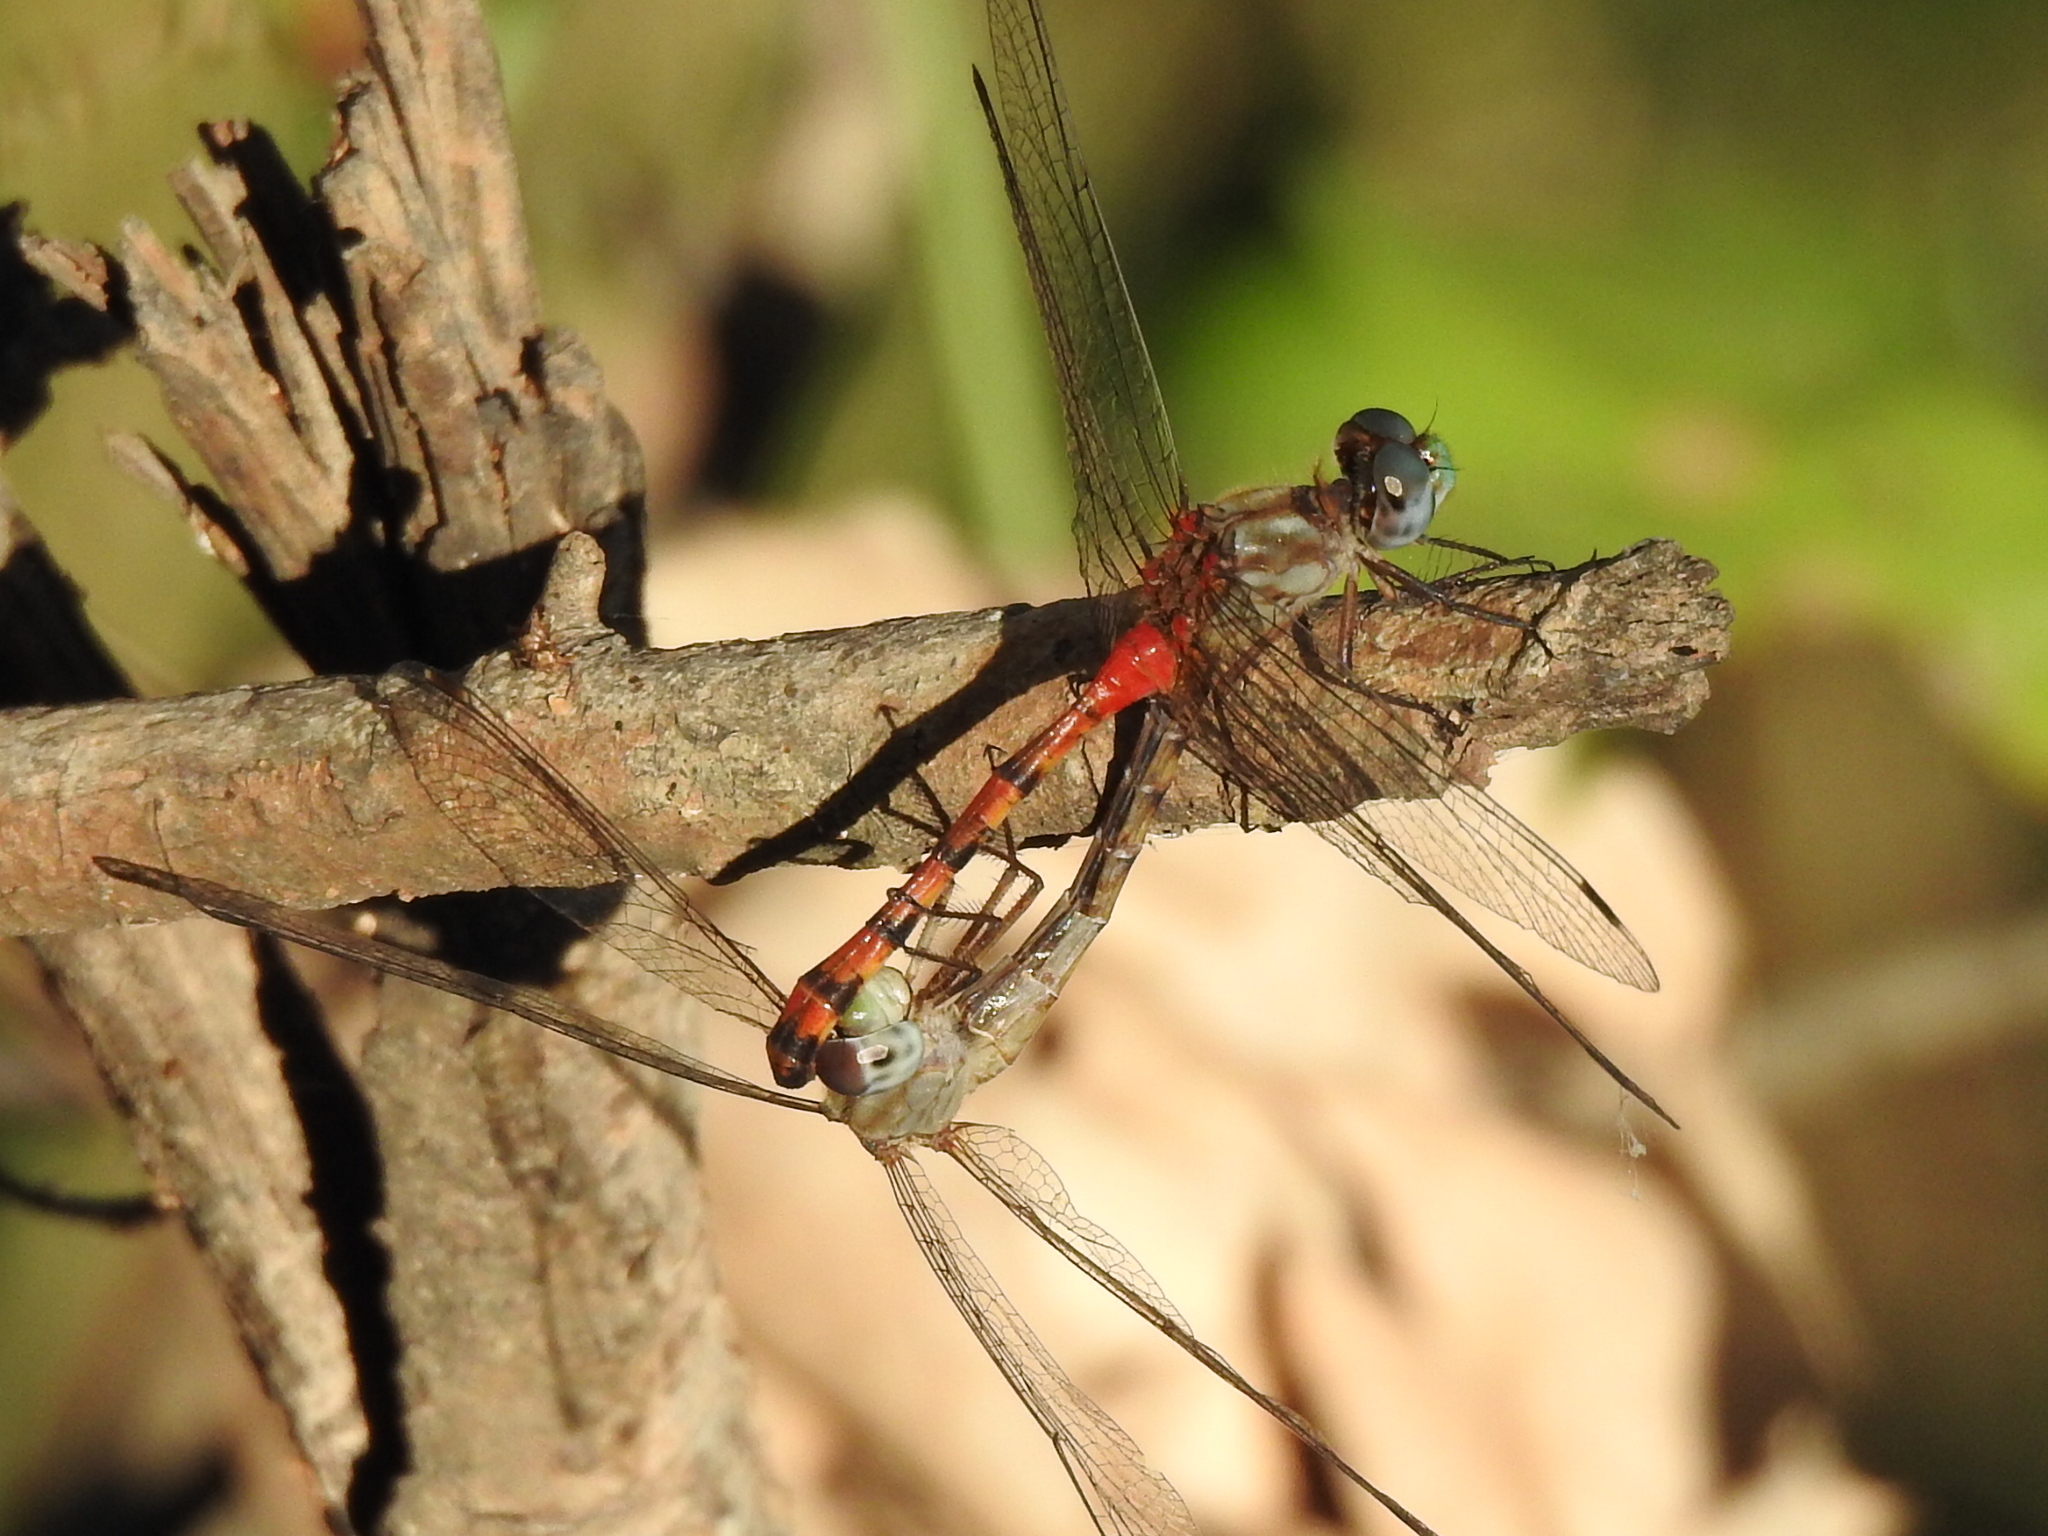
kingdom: Animalia
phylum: Arthropoda
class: Insecta
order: Odonata
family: Libellulidae
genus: Sympetrum
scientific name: Sympetrum ambiguum
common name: Blue-faced meadowhawk
